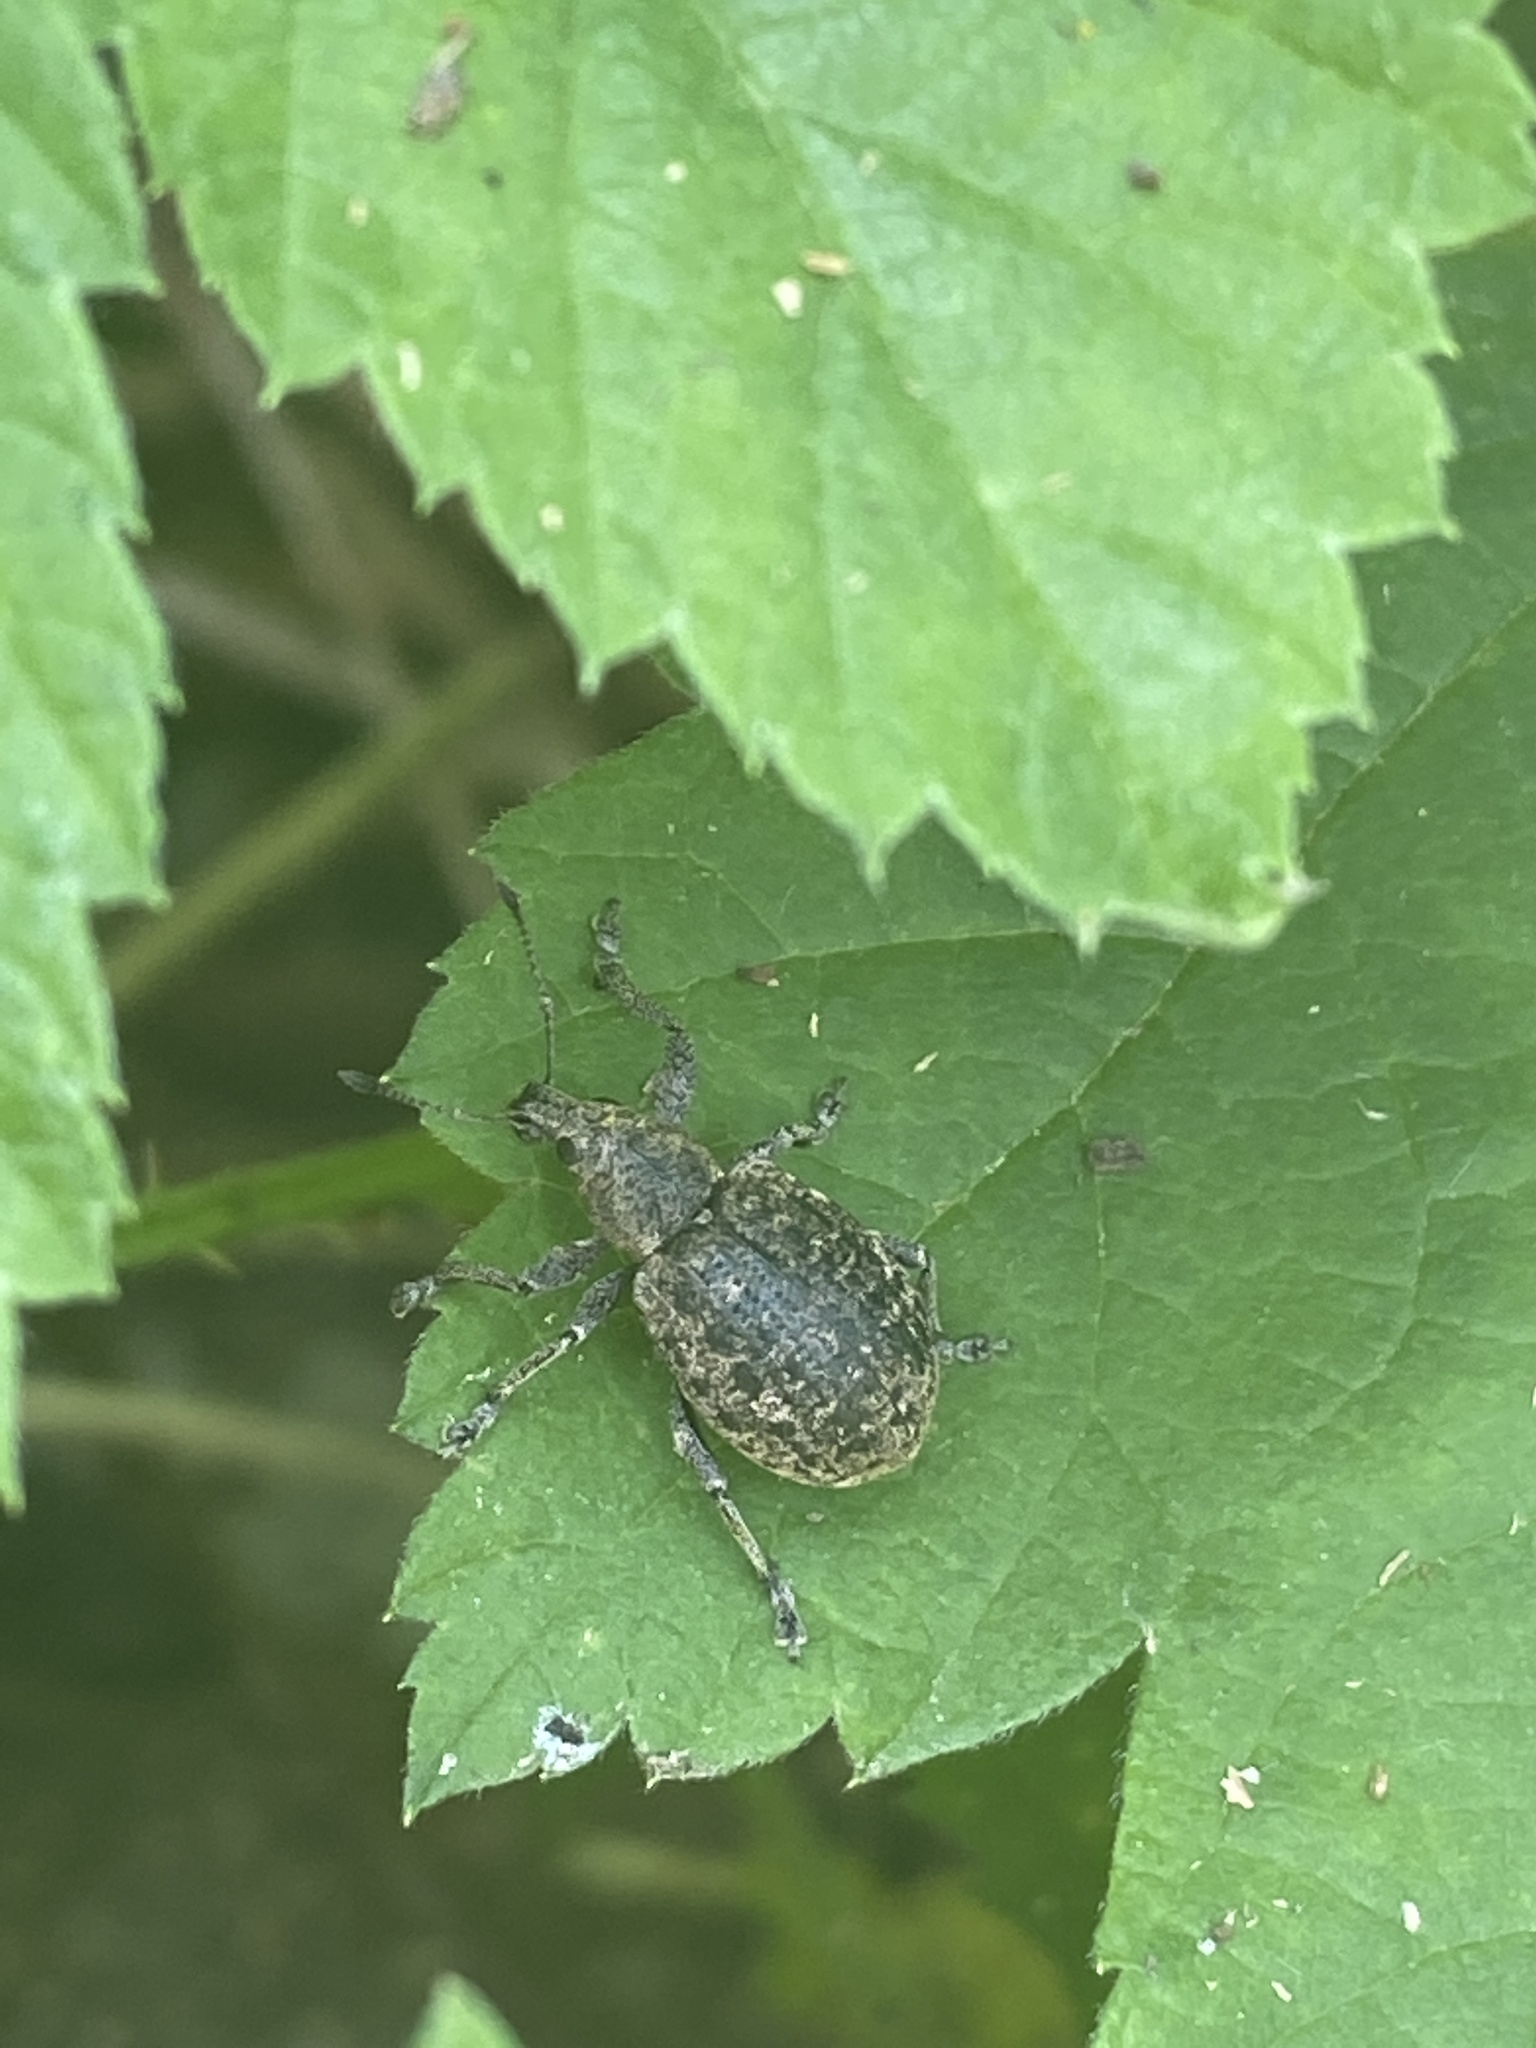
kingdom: Animalia
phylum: Arthropoda
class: Insecta
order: Coleoptera
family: Curculionidae
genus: Liophloeus
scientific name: Liophloeus tessulatus
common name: Weevil
